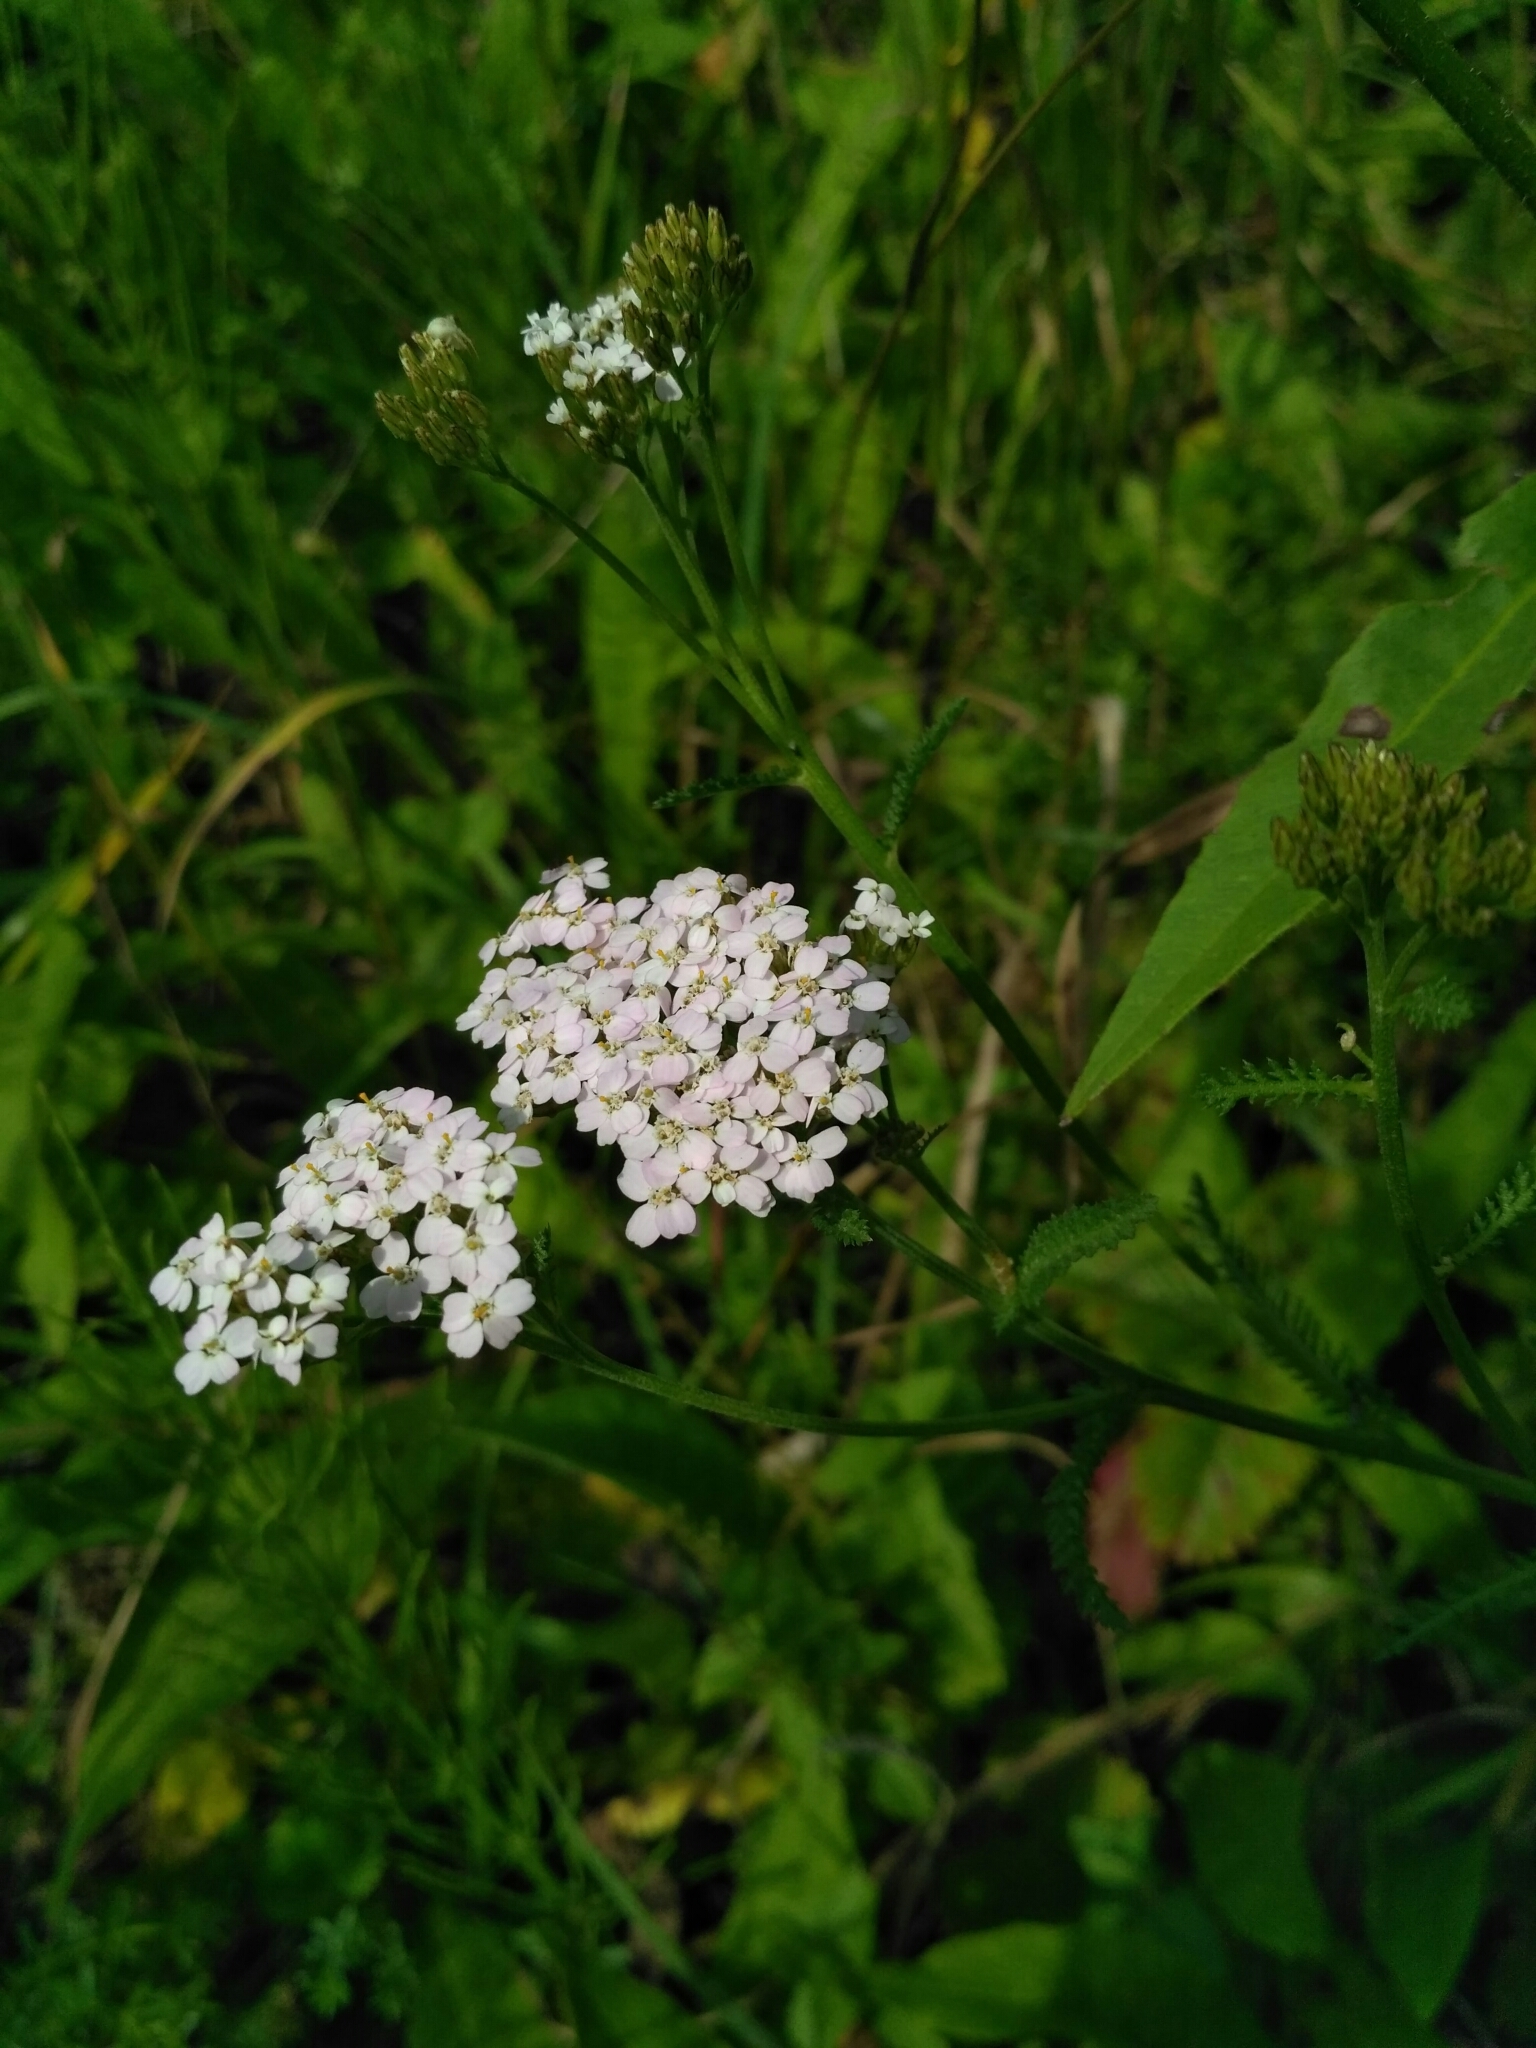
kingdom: Plantae
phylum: Tracheophyta
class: Magnoliopsida
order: Asterales
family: Asteraceae
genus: Achillea
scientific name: Achillea millefolium
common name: Yarrow
